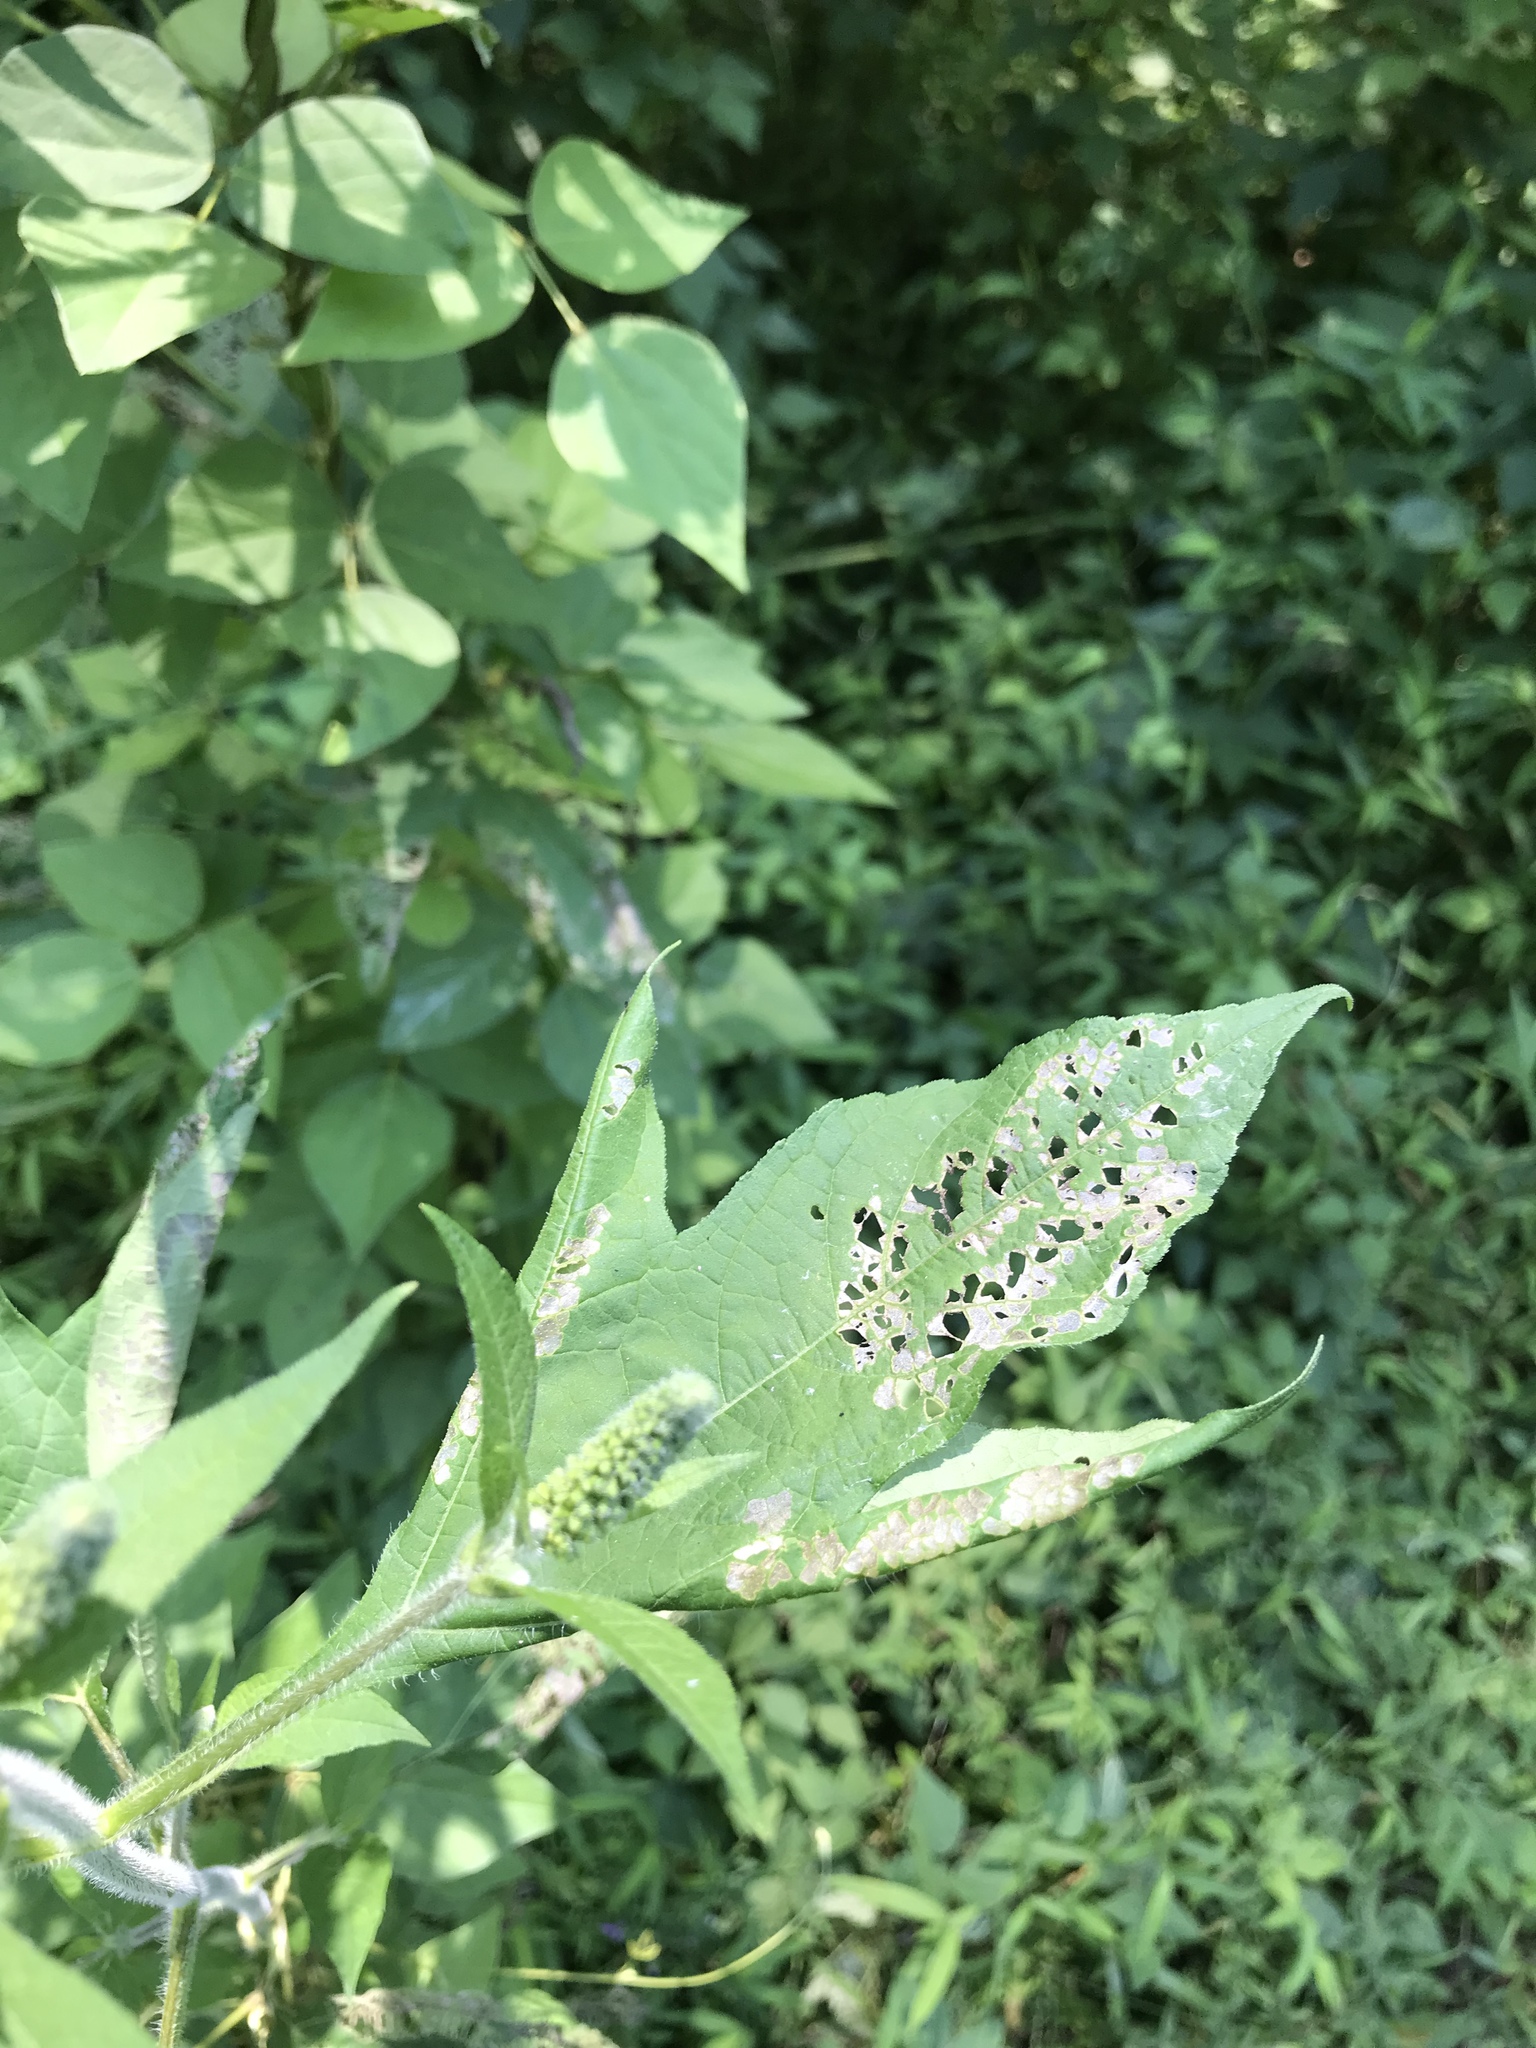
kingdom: Plantae
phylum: Tracheophyta
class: Magnoliopsida
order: Asterales
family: Asteraceae
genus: Ambrosia
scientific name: Ambrosia trifida
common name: Giant ragweed
